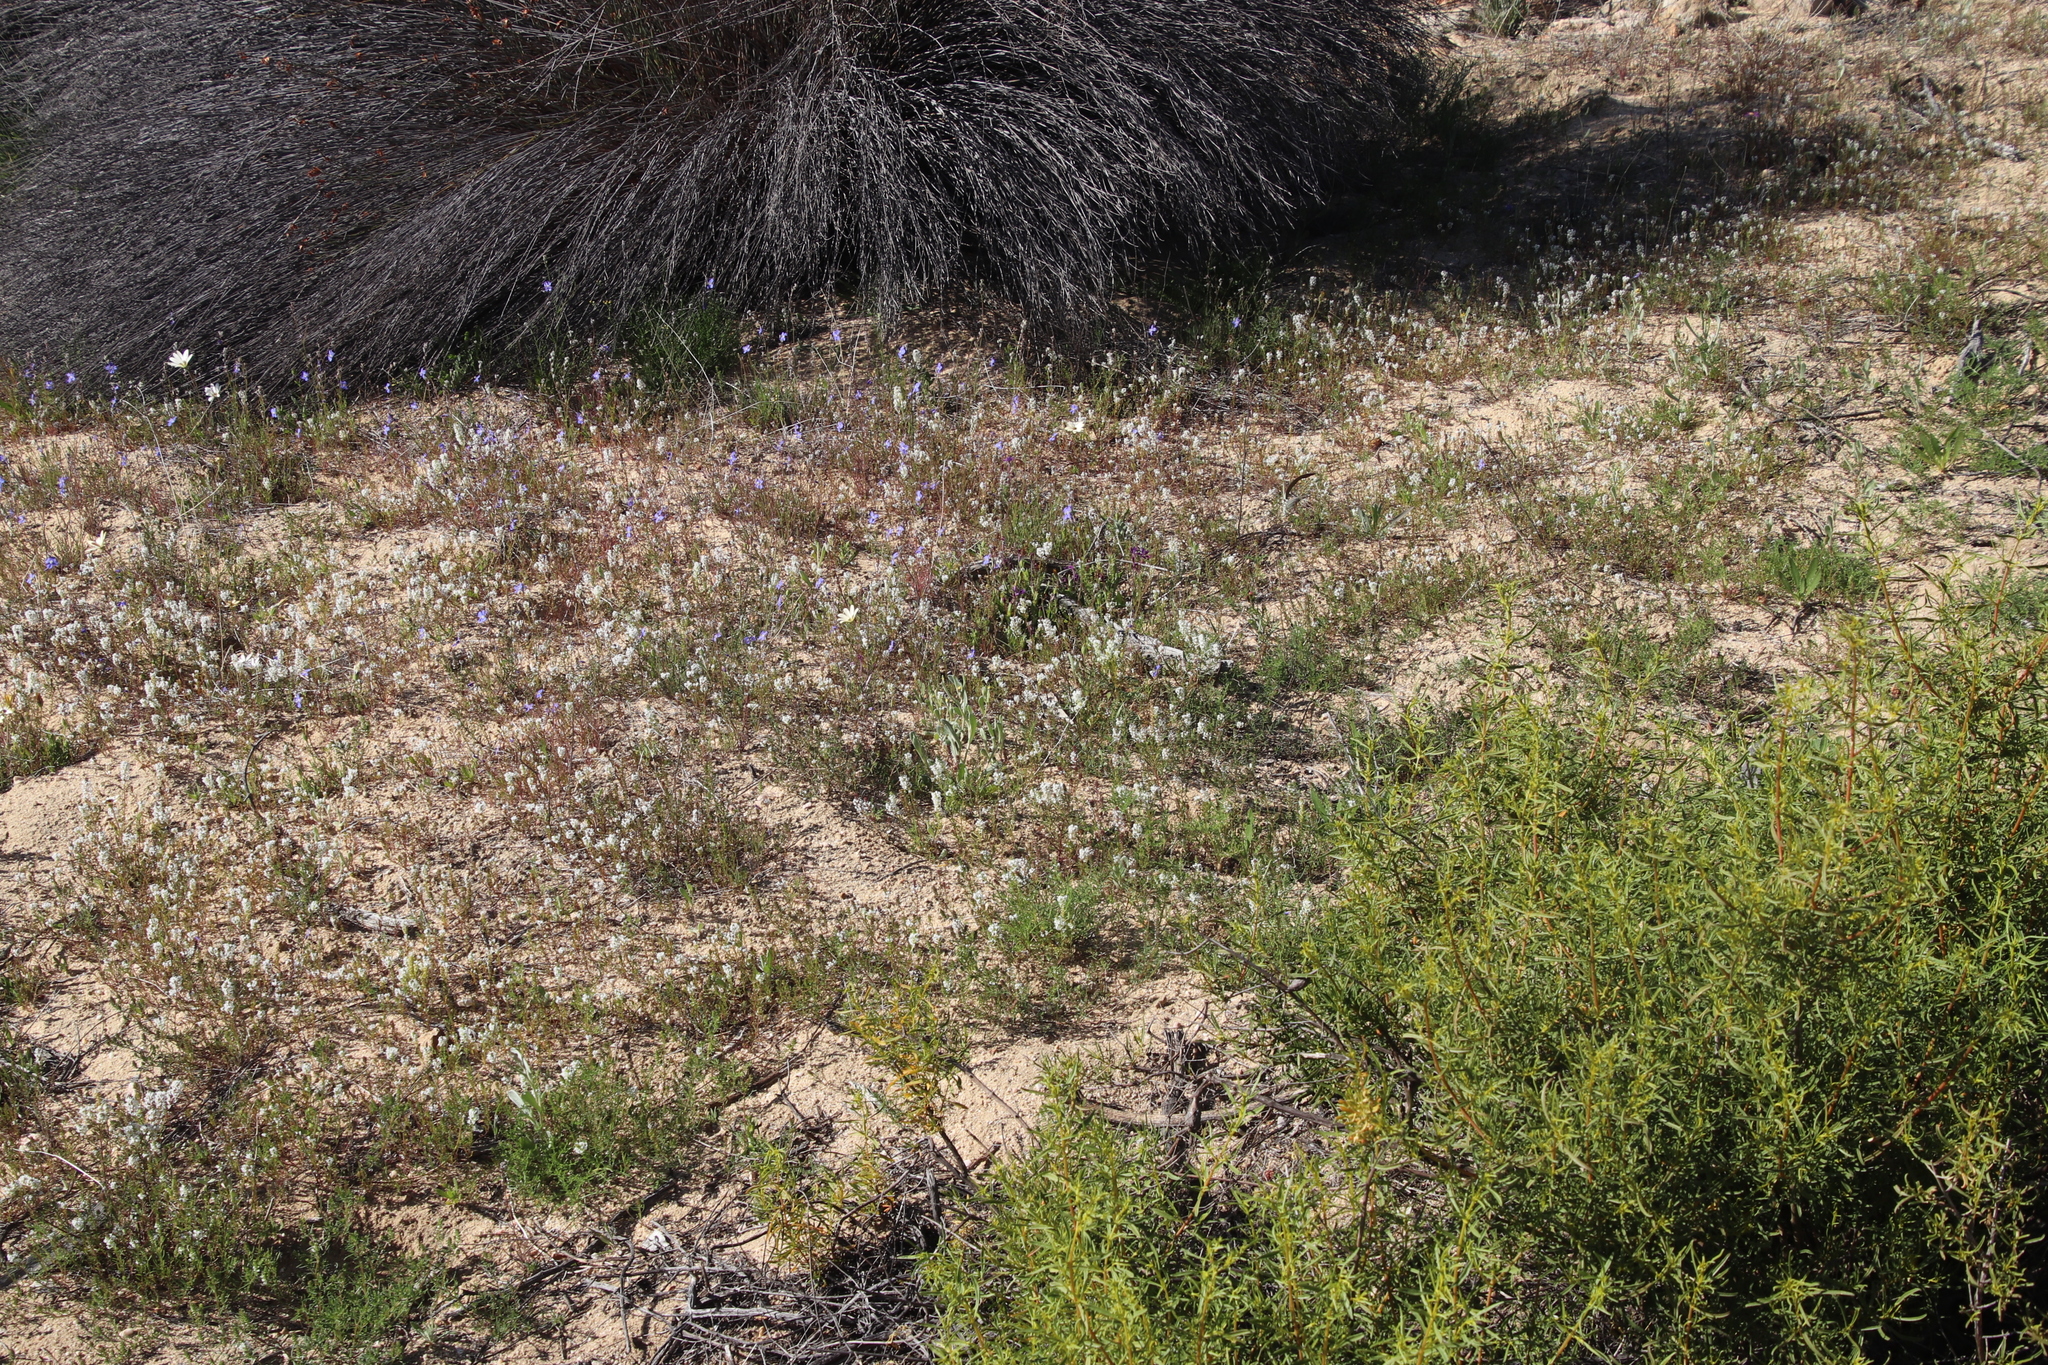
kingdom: Plantae
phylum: Tracheophyta
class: Magnoliopsida
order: Brassicales
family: Brassicaceae
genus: Heliophila
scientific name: Heliophila acuminata
